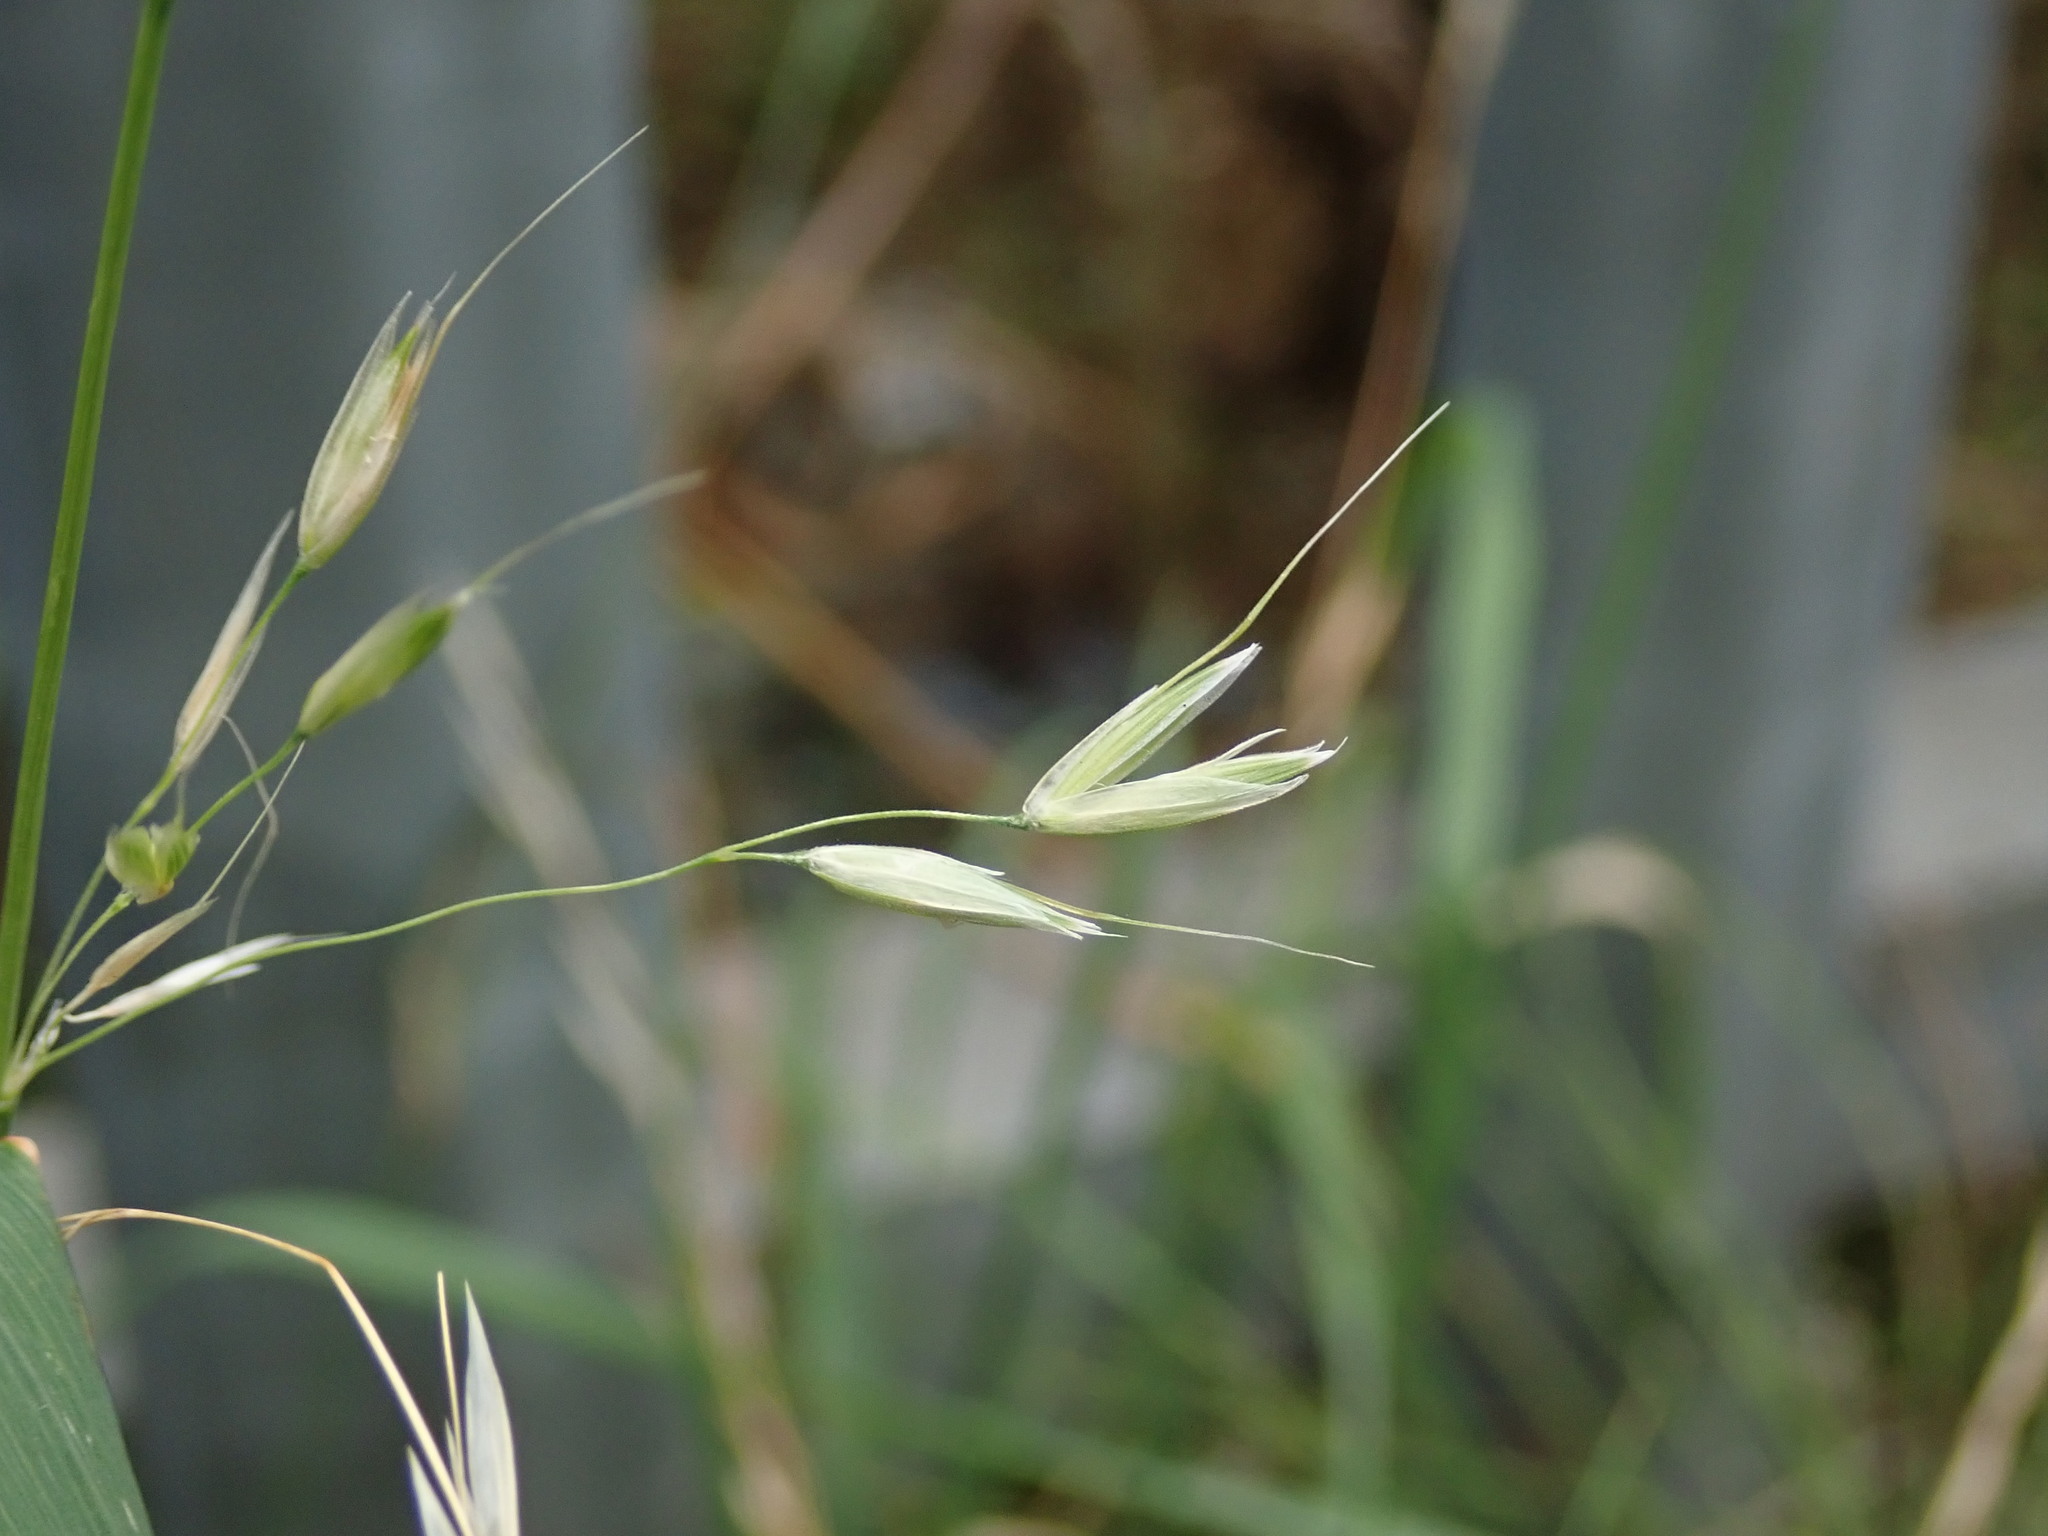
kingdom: Plantae
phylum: Tracheophyta
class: Liliopsida
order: Poales
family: Poaceae
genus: Arrhenatherum
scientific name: Arrhenatherum elatius
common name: Tall oatgrass
